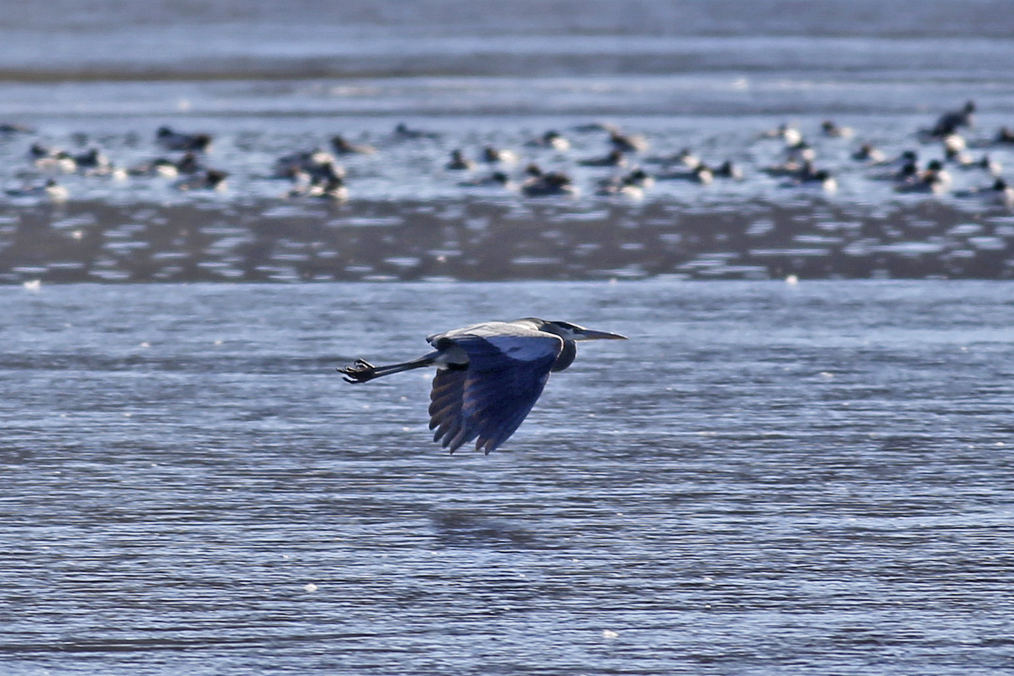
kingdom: Animalia
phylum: Chordata
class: Aves
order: Pelecaniformes
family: Ardeidae
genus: Ardea
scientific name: Ardea herodias
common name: Great blue heron
